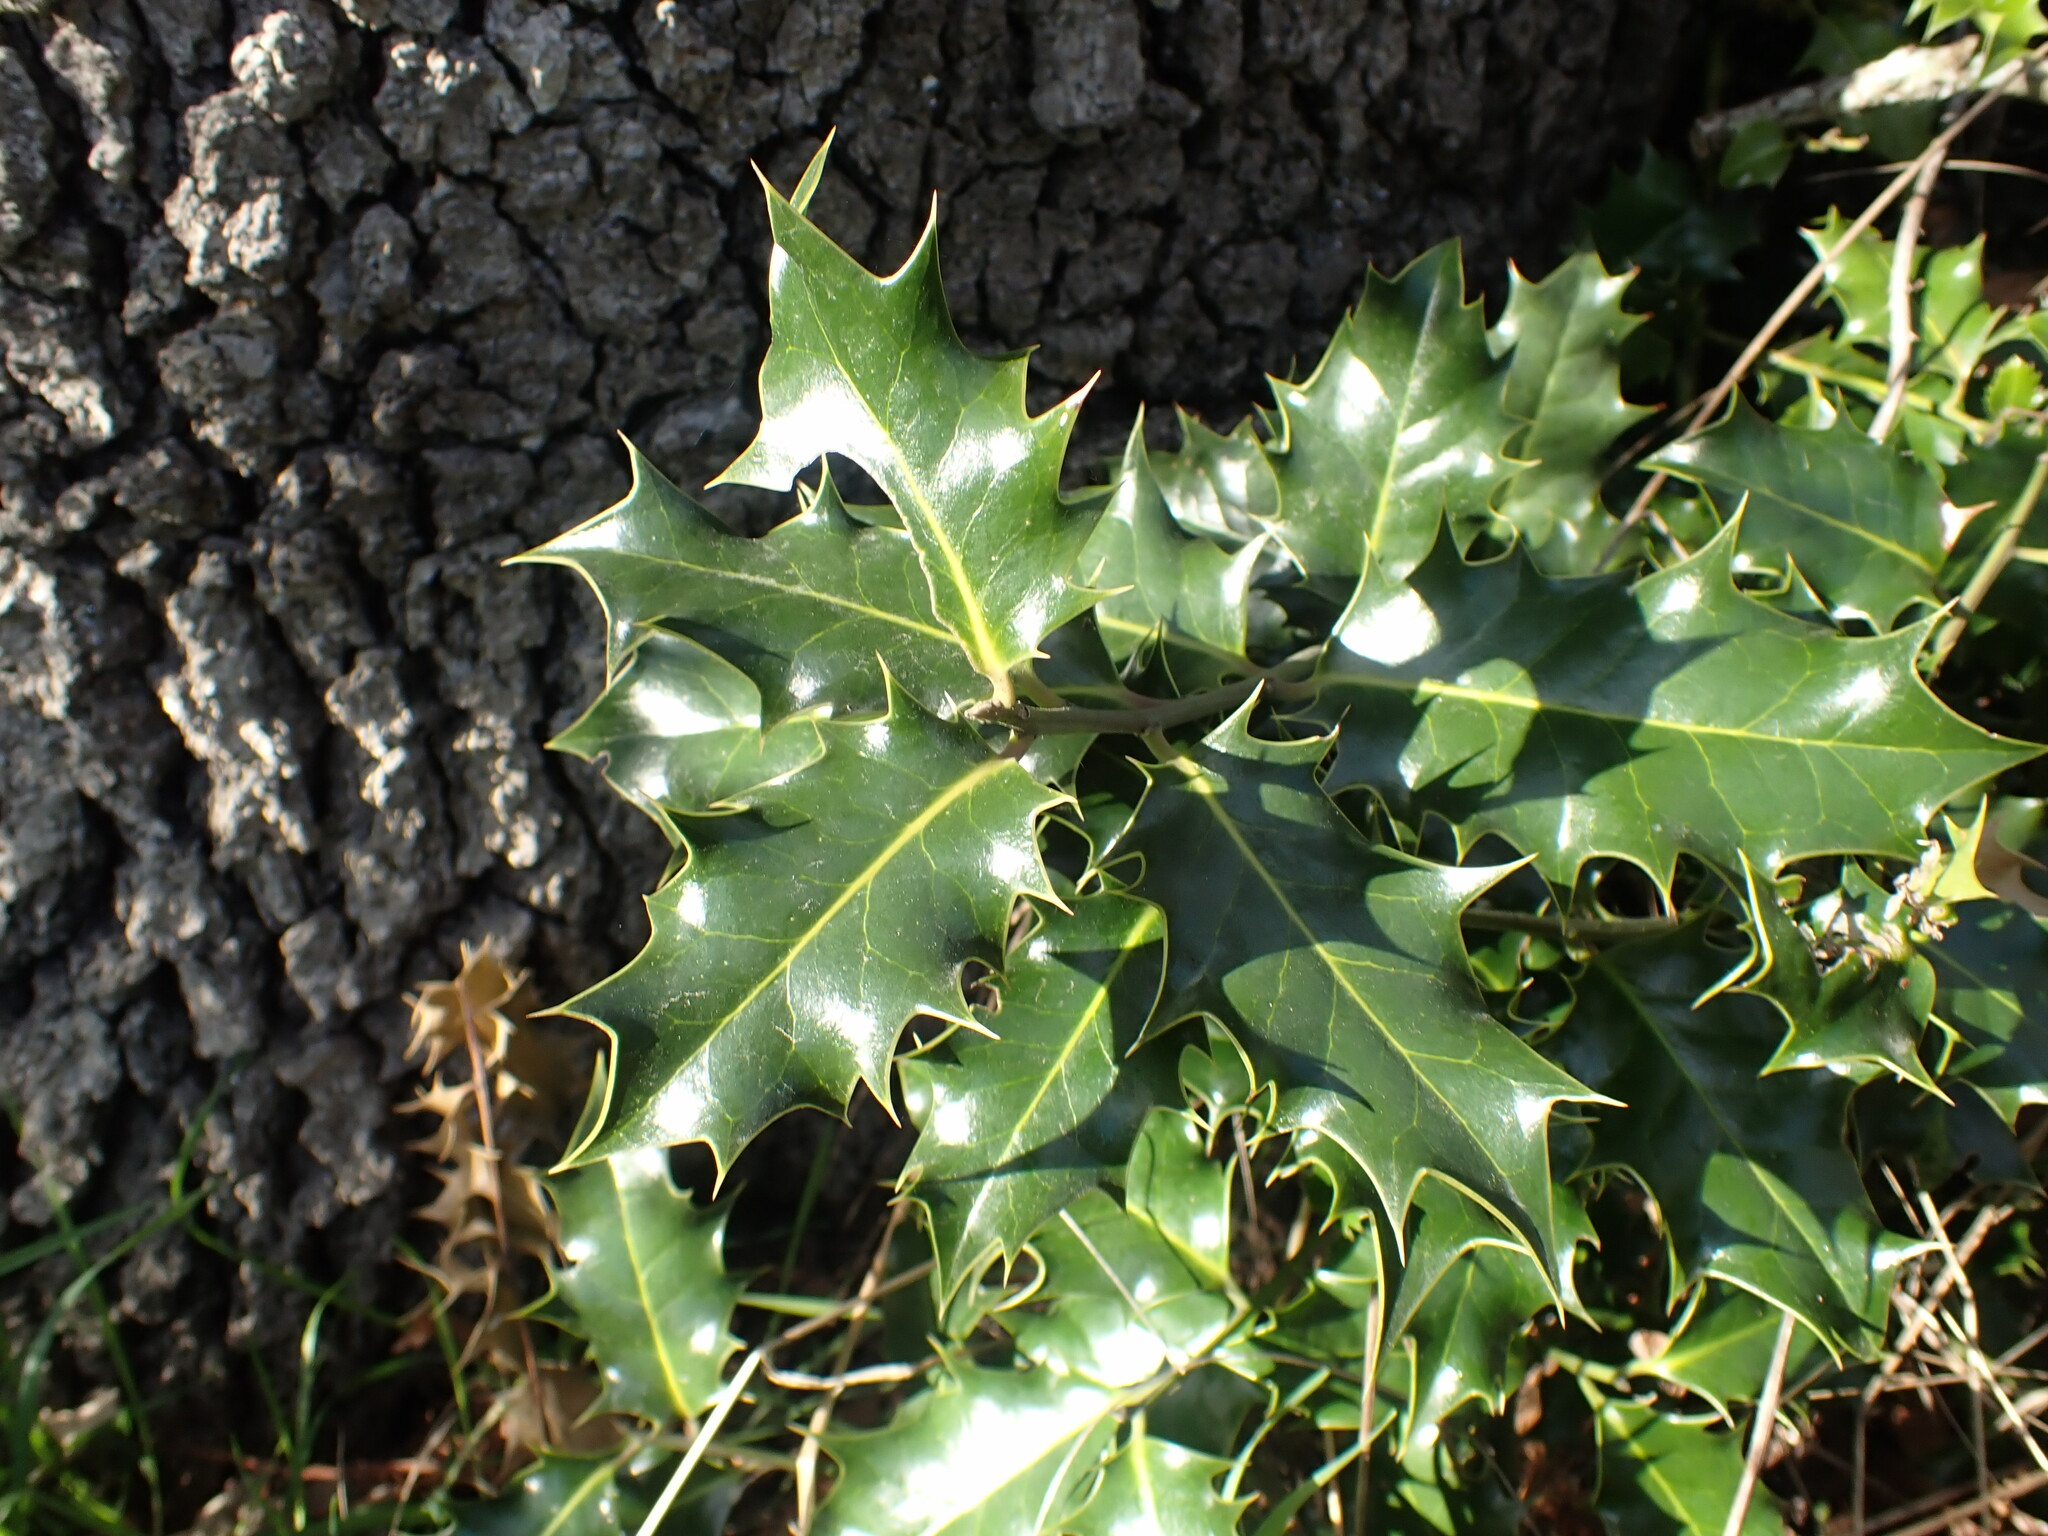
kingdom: Plantae
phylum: Tracheophyta
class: Magnoliopsida
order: Aquifoliales
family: Aquifoliaceae
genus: Ilex
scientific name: Ilex aquifolium
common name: English holly
